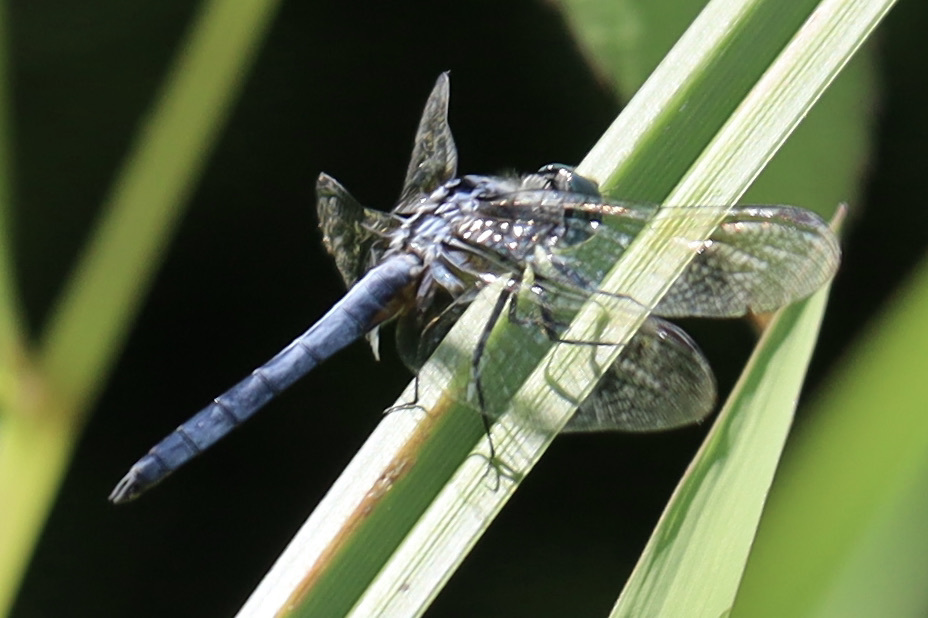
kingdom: Animalia
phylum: Arthropoda
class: Insecta
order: Odonata
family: Libellulidae
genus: Pachydiplax
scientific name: Pachydiplax longipennis
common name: Blue dasher
